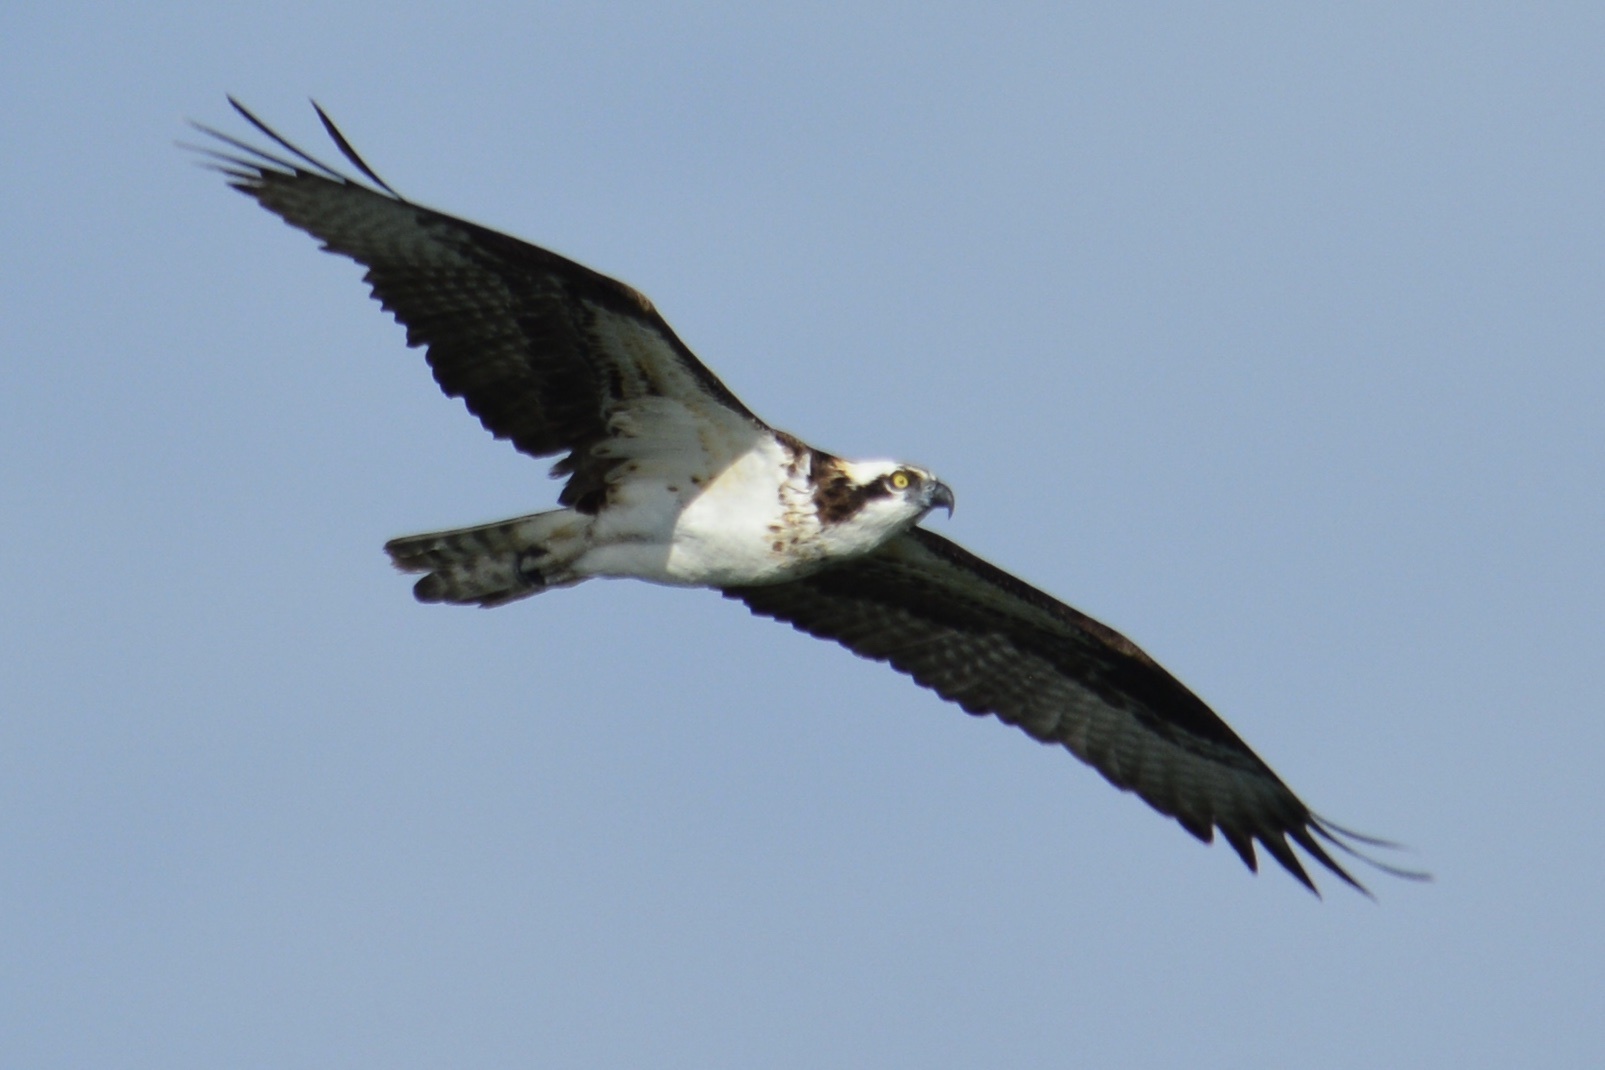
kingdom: Animalia
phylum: Chordata
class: Aves
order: Accipitriformes
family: Pandionidae
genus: Pandion
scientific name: Pandion haliaetus
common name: Osprey
